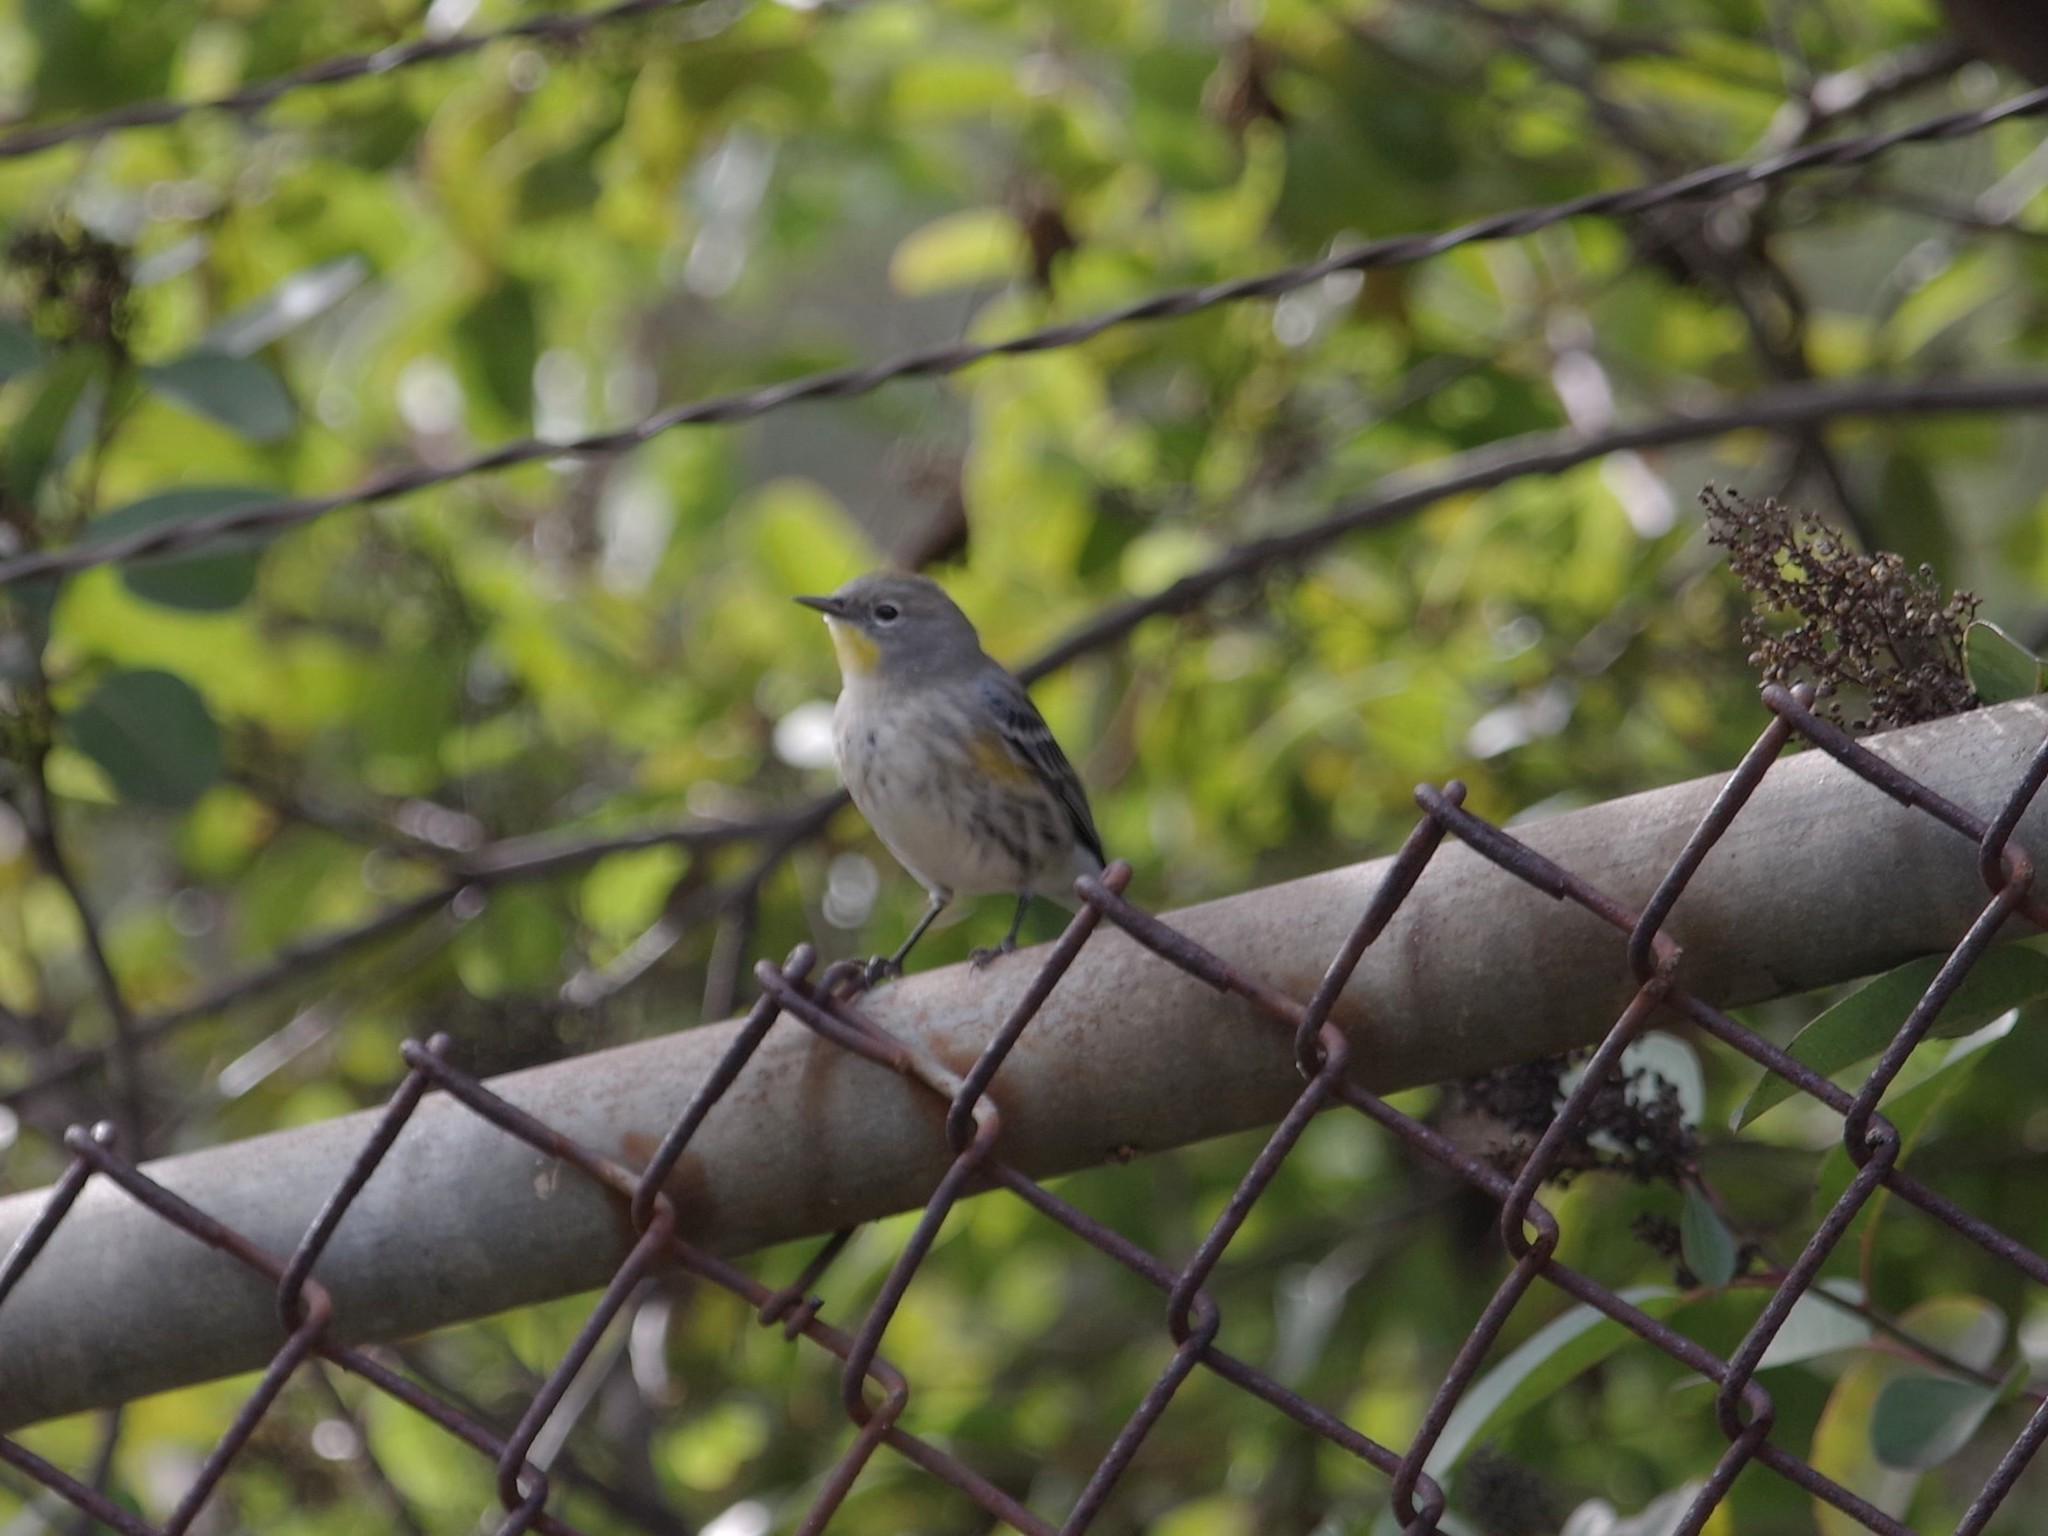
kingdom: Animalia
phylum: Chordata
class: Aves
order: Passeriformes
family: Parulidae
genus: Setophaga
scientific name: Setophaga coronata
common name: Myrtle warbler
